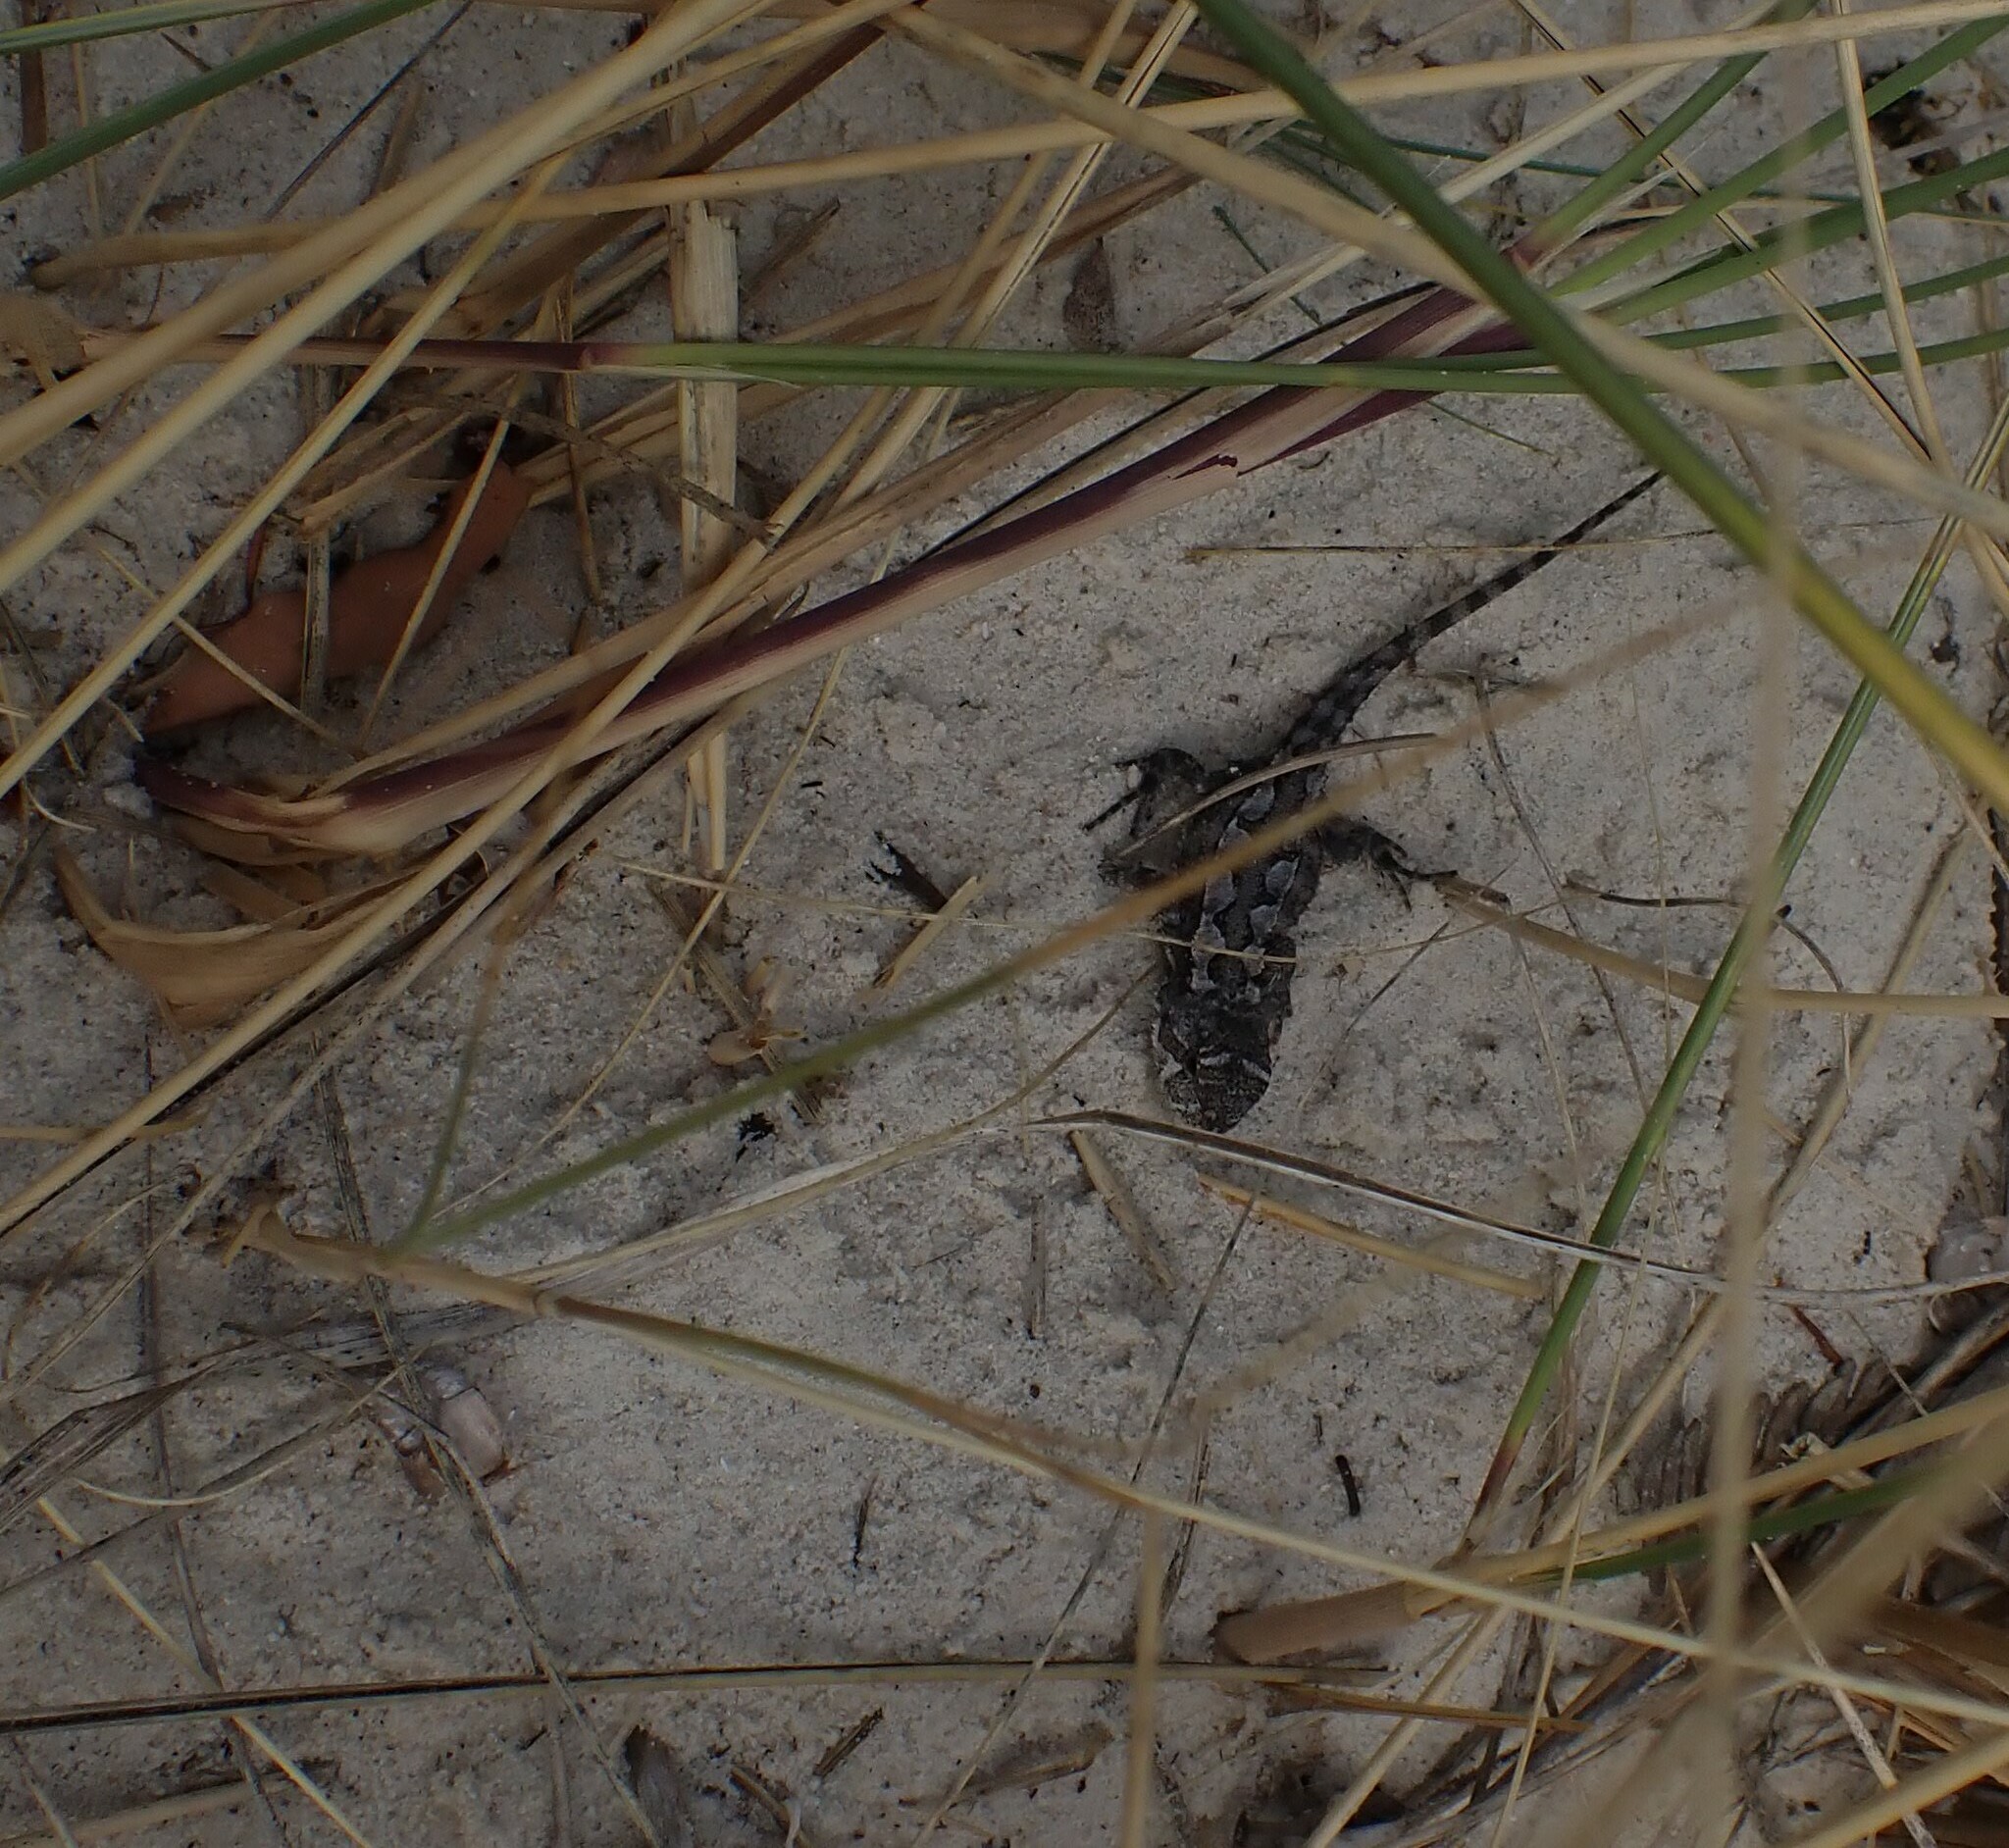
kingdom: Animalia
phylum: Chordata
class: Squamata
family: Agamidae
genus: Rankinia
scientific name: Rankinia diemensis
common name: Mountain dragon
